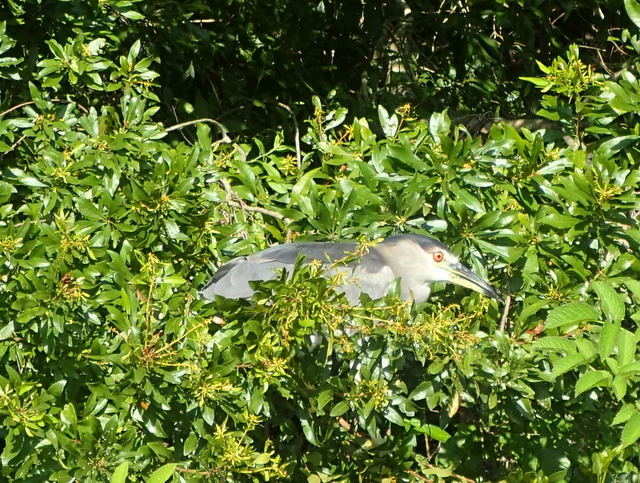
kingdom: Animalia
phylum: Chordata
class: Aves
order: Pelecaniformes
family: Ardeidae
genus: Nycticorax
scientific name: Nycticorax nycticorax
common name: Black-crowned night heron
